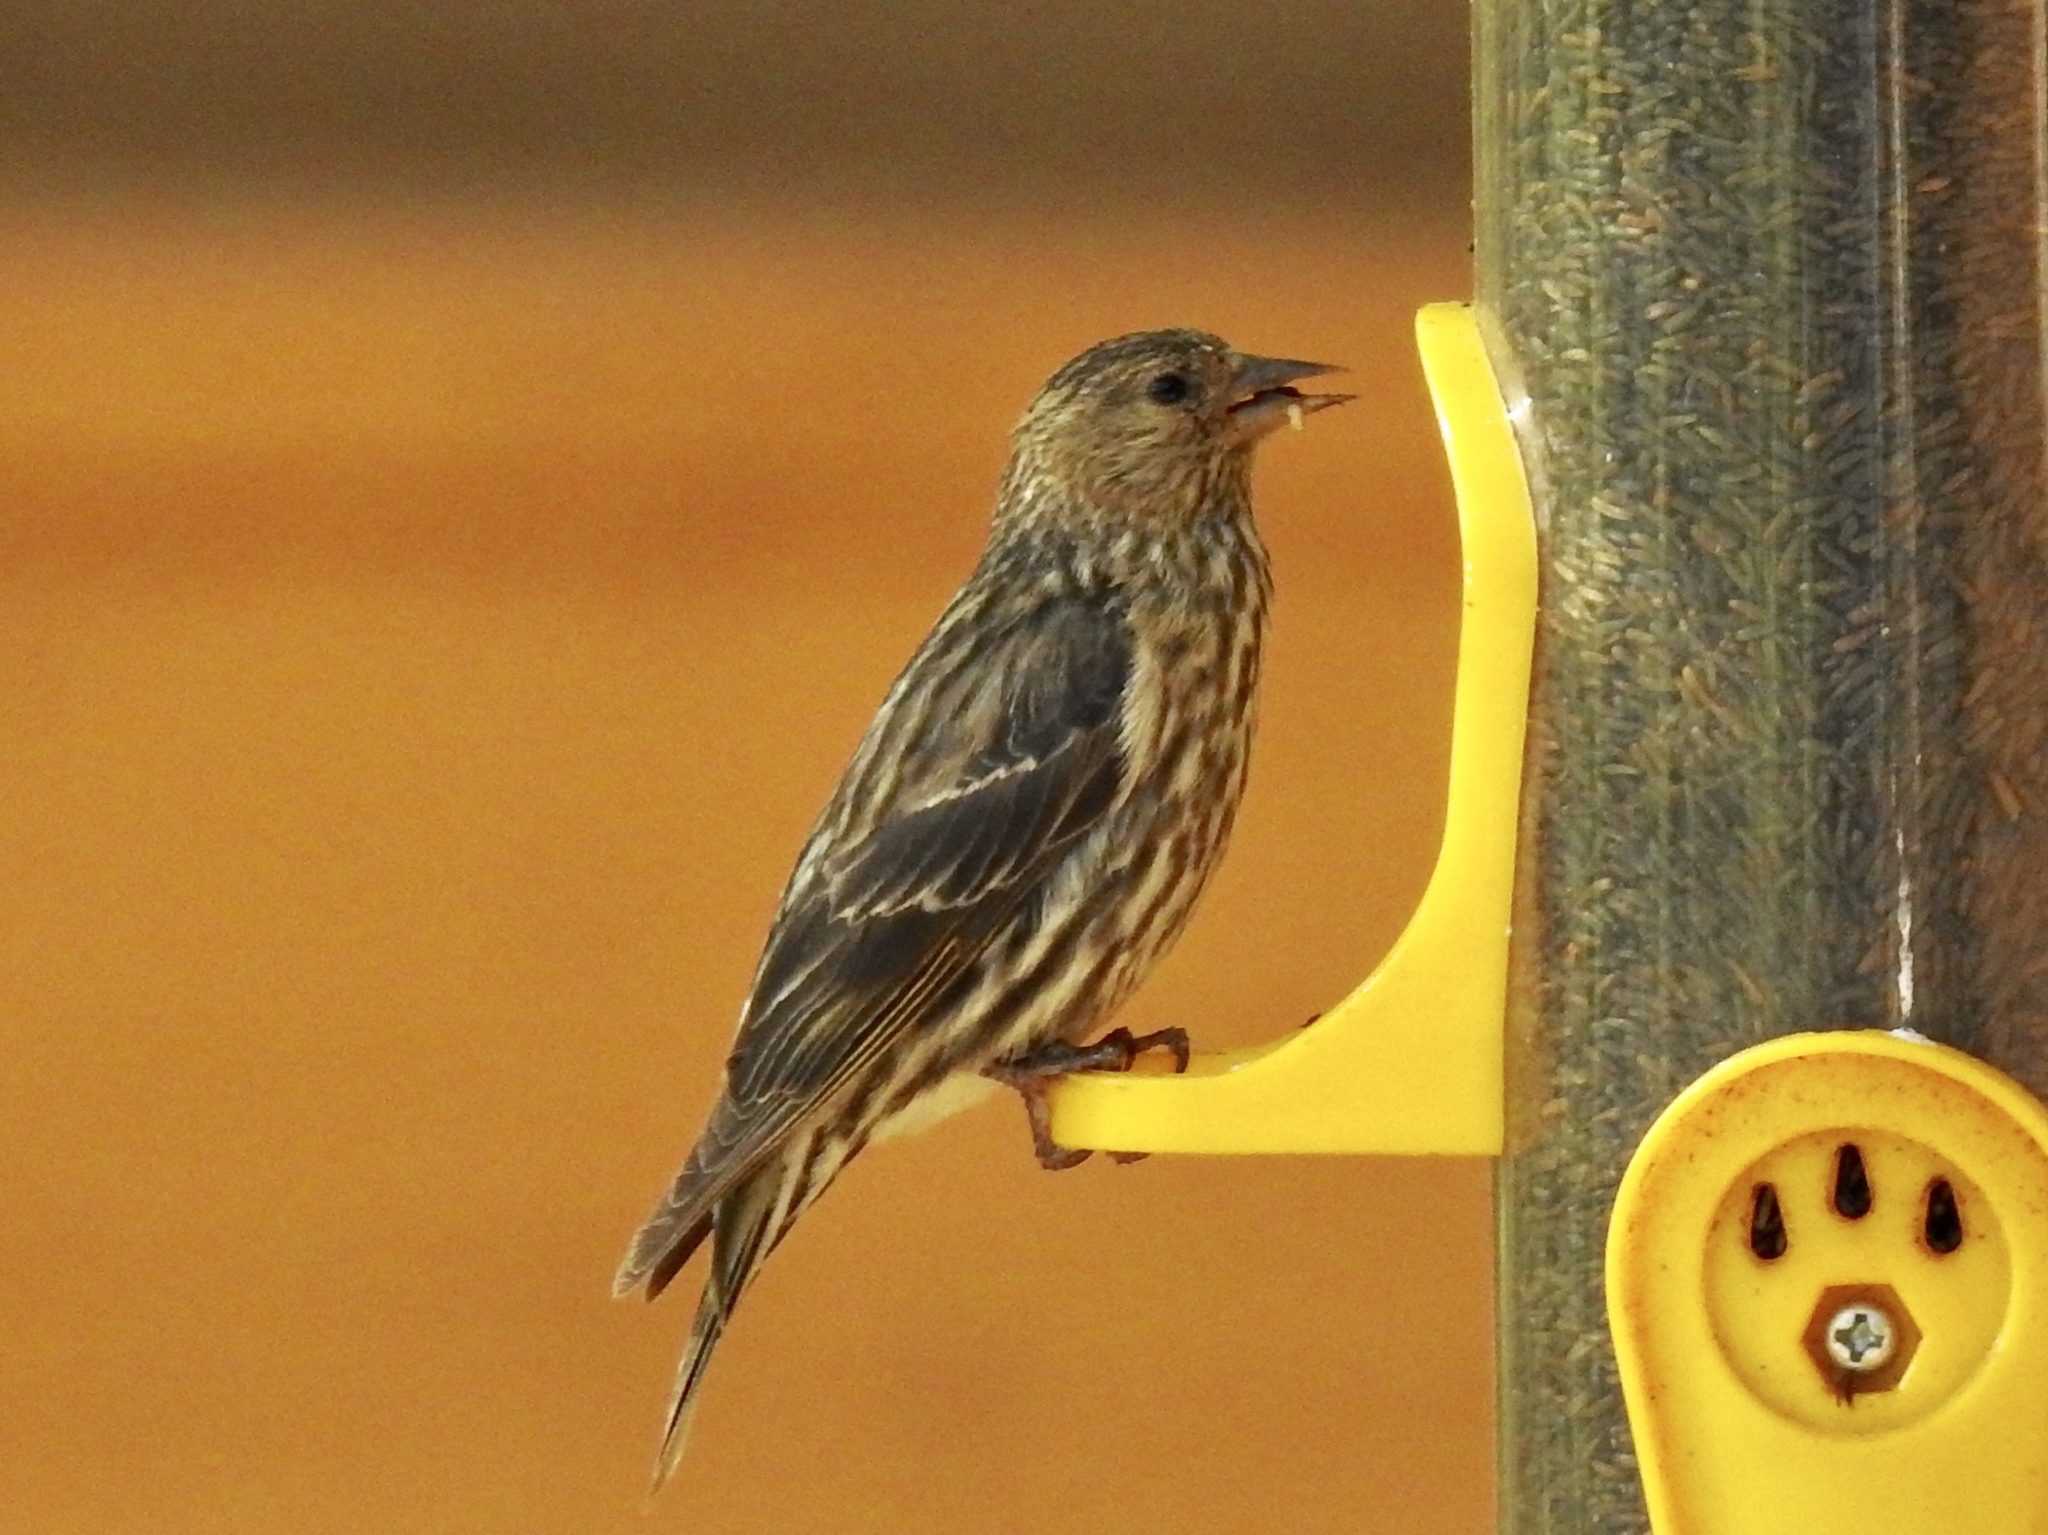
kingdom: Animalia
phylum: Chordata
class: Aves
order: Passeriformes
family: Fringillidae
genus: Spinus
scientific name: Spinus pinus
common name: Pine siskin
